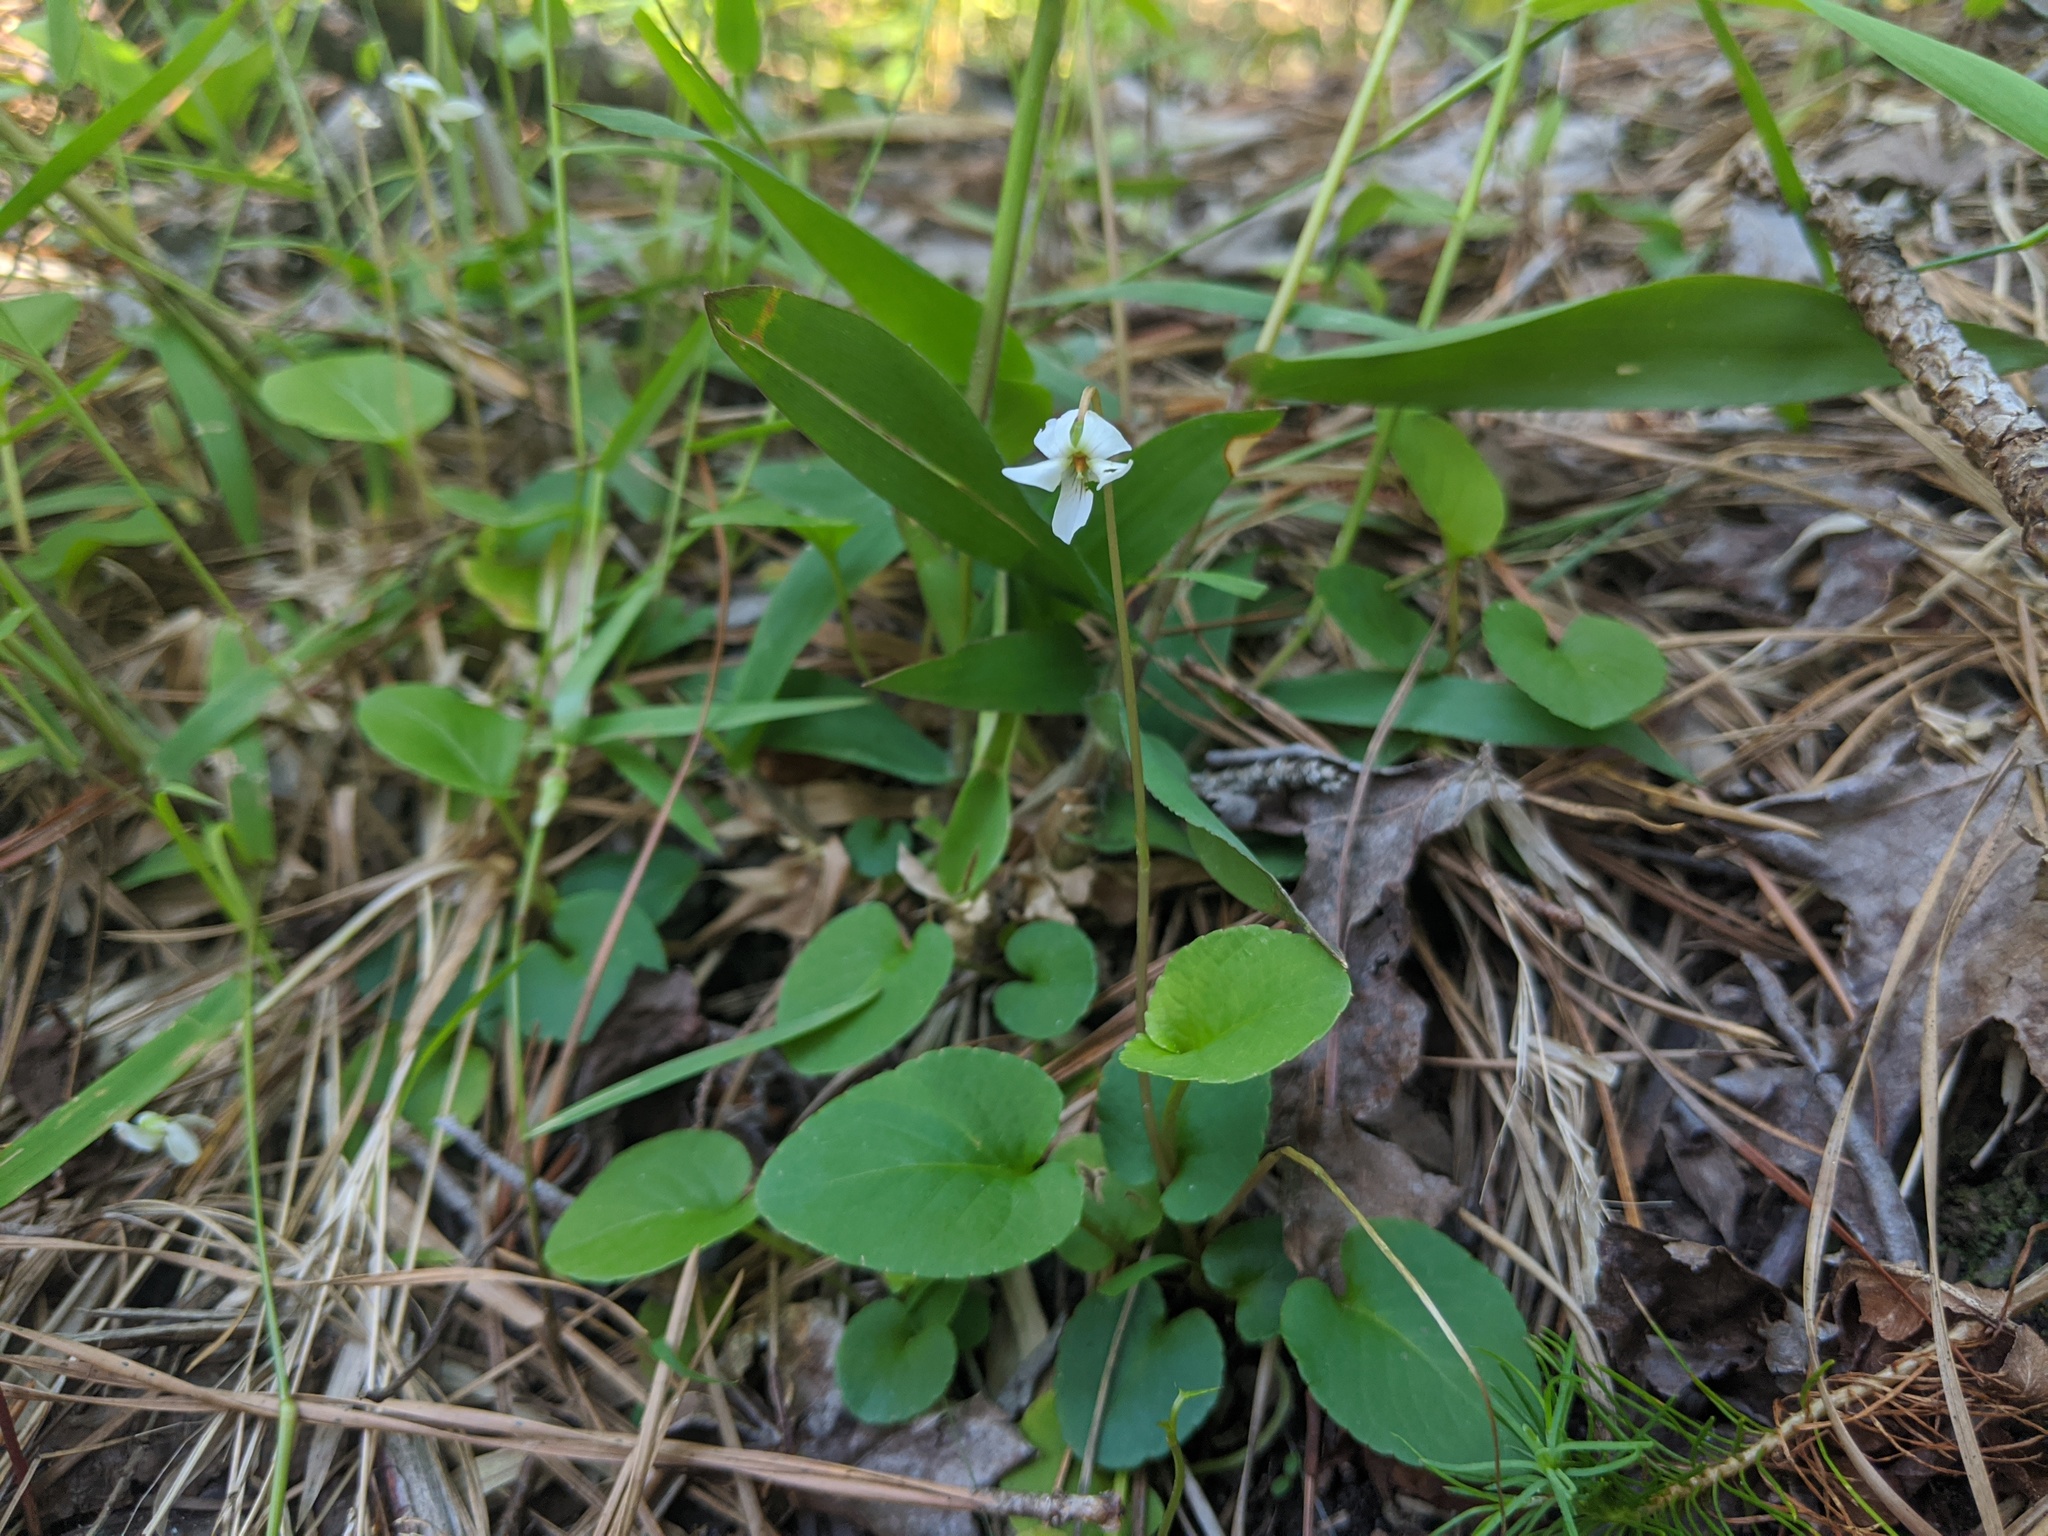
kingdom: Plantae
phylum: Tracheophyta
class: Magnoliopsida
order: Malpighiales
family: Violaceae
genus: Viola
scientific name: Viola primulifolia
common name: Primrose-leaf violet
